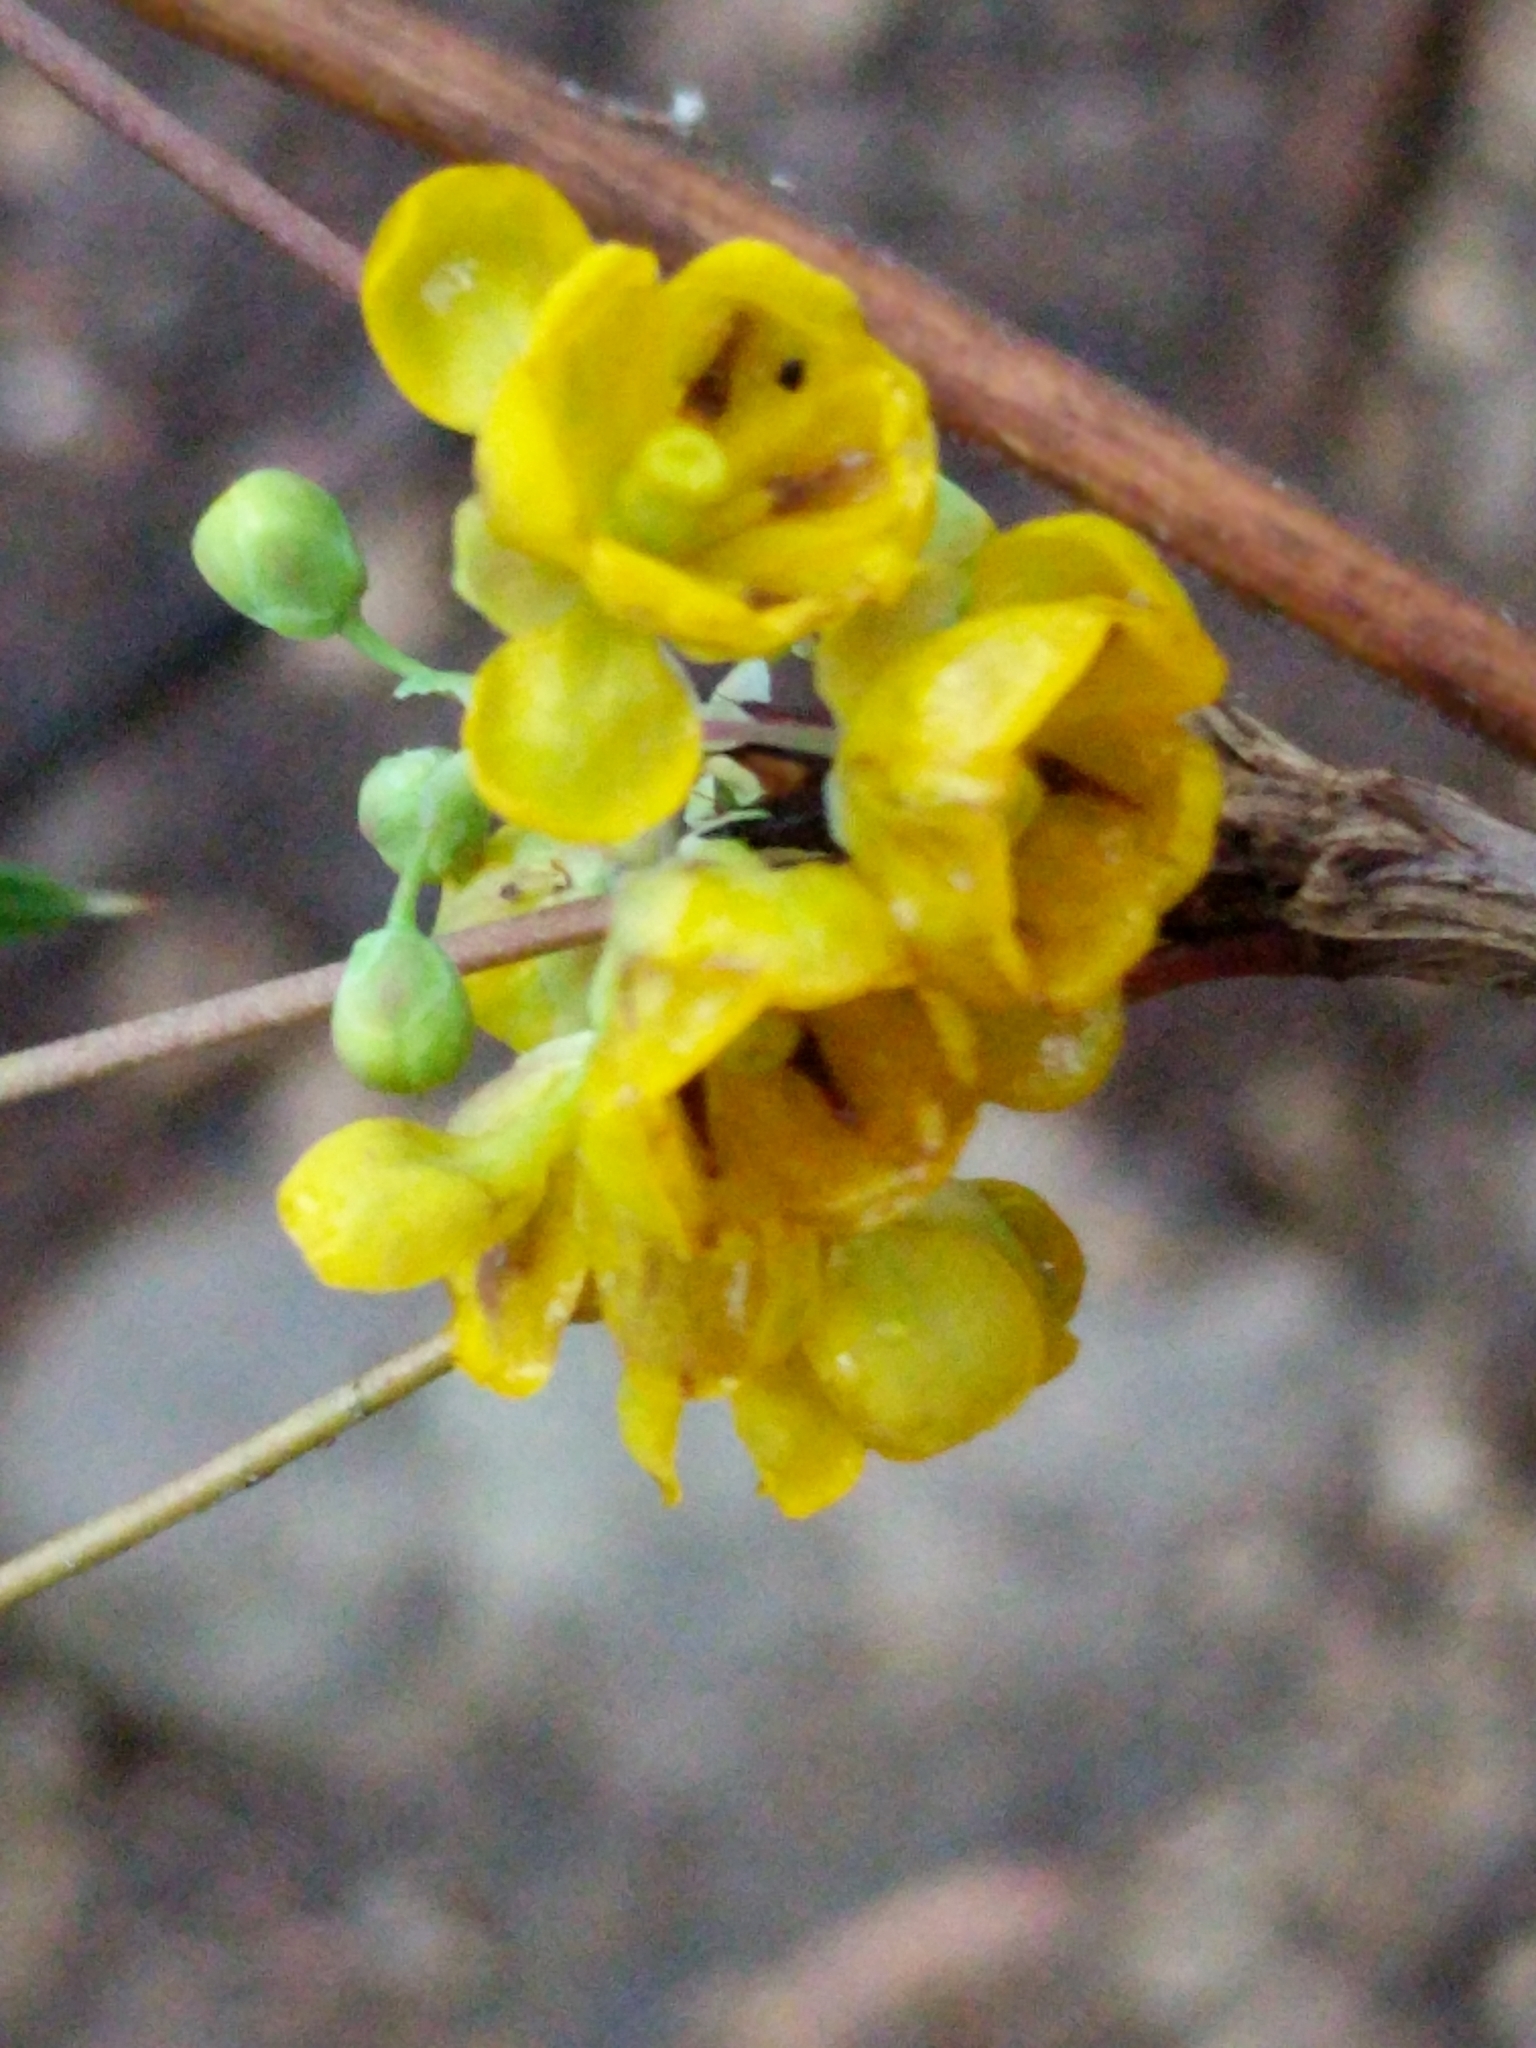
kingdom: Plantae
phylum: Tracheophyta
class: Magnoliopsida
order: Ranunculales
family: Berberidaceae
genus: Alloberberis
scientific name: Alloberberis trifoliolata
